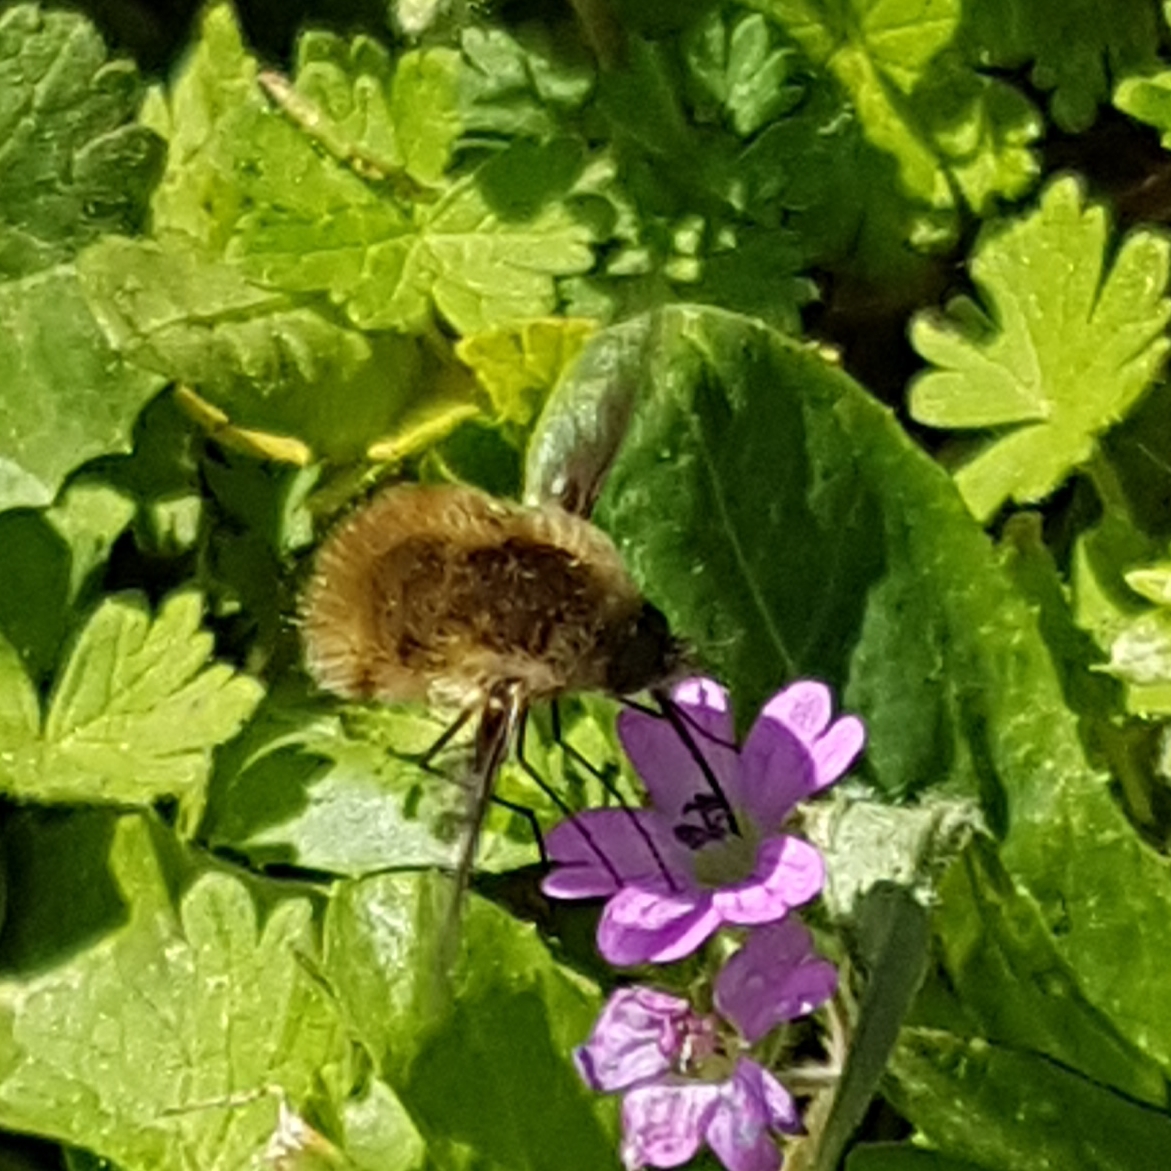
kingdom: Animalia
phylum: Arthropoda
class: Insecta
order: Diptera
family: Bombyliidae
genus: Bombylius
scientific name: Bombylius major
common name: Bee fly
